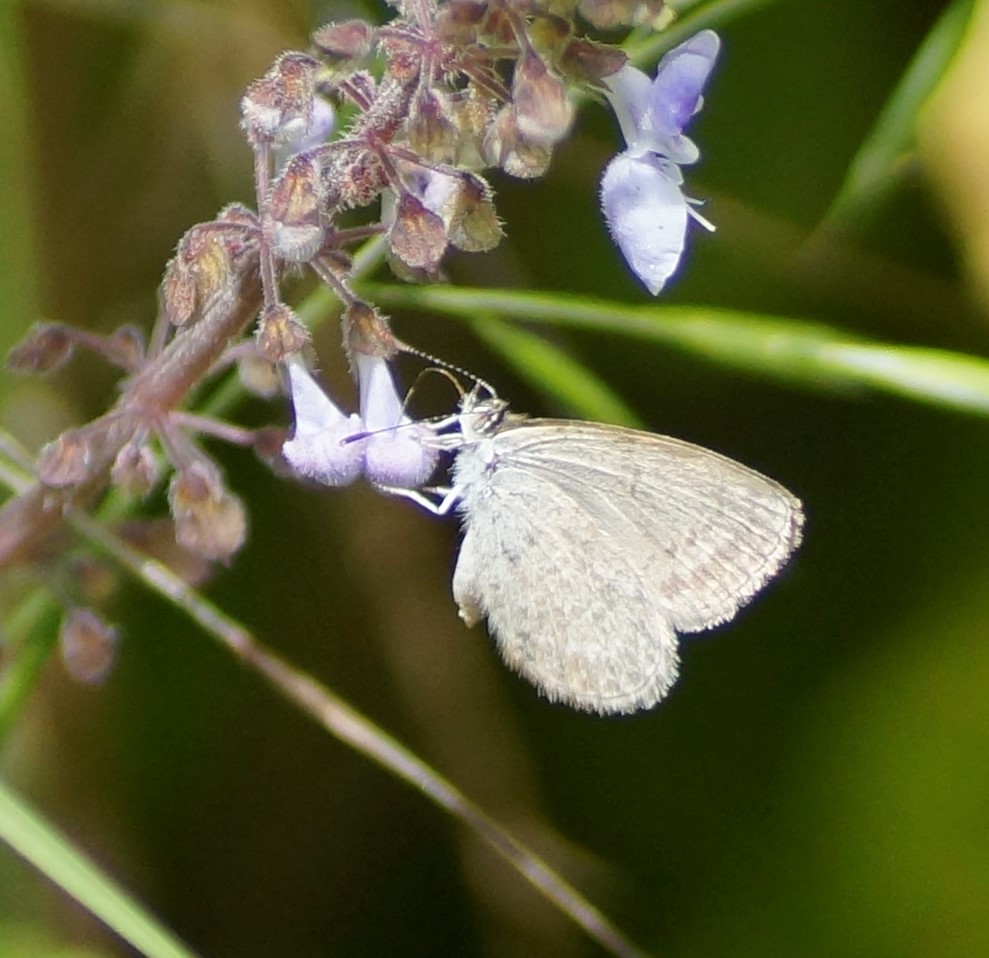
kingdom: Animalia
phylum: Arthropoda
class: Insecta
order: Lepidoptera
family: Lycaenidae
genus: Zizina
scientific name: Zizina labradus
